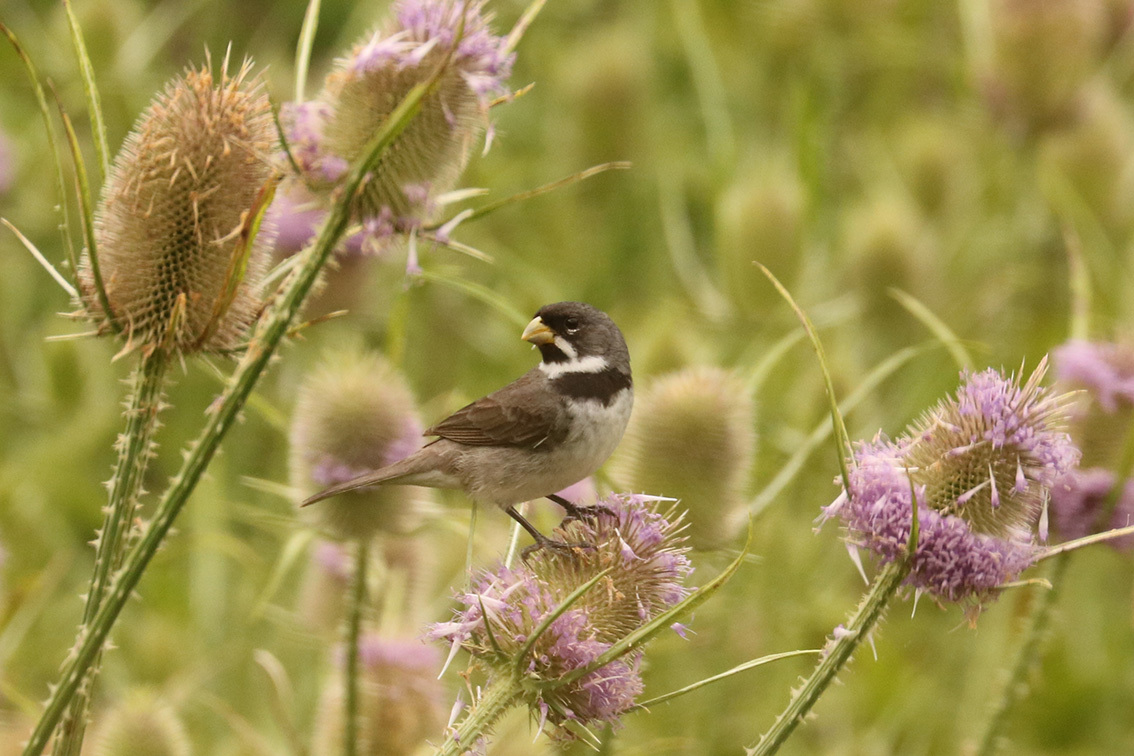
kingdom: Animalia
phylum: Chordata
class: Aves
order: Passeriformes
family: Thraupidae
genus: Sporophila
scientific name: Sporophila caerulescens
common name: Double-collared seedeater
